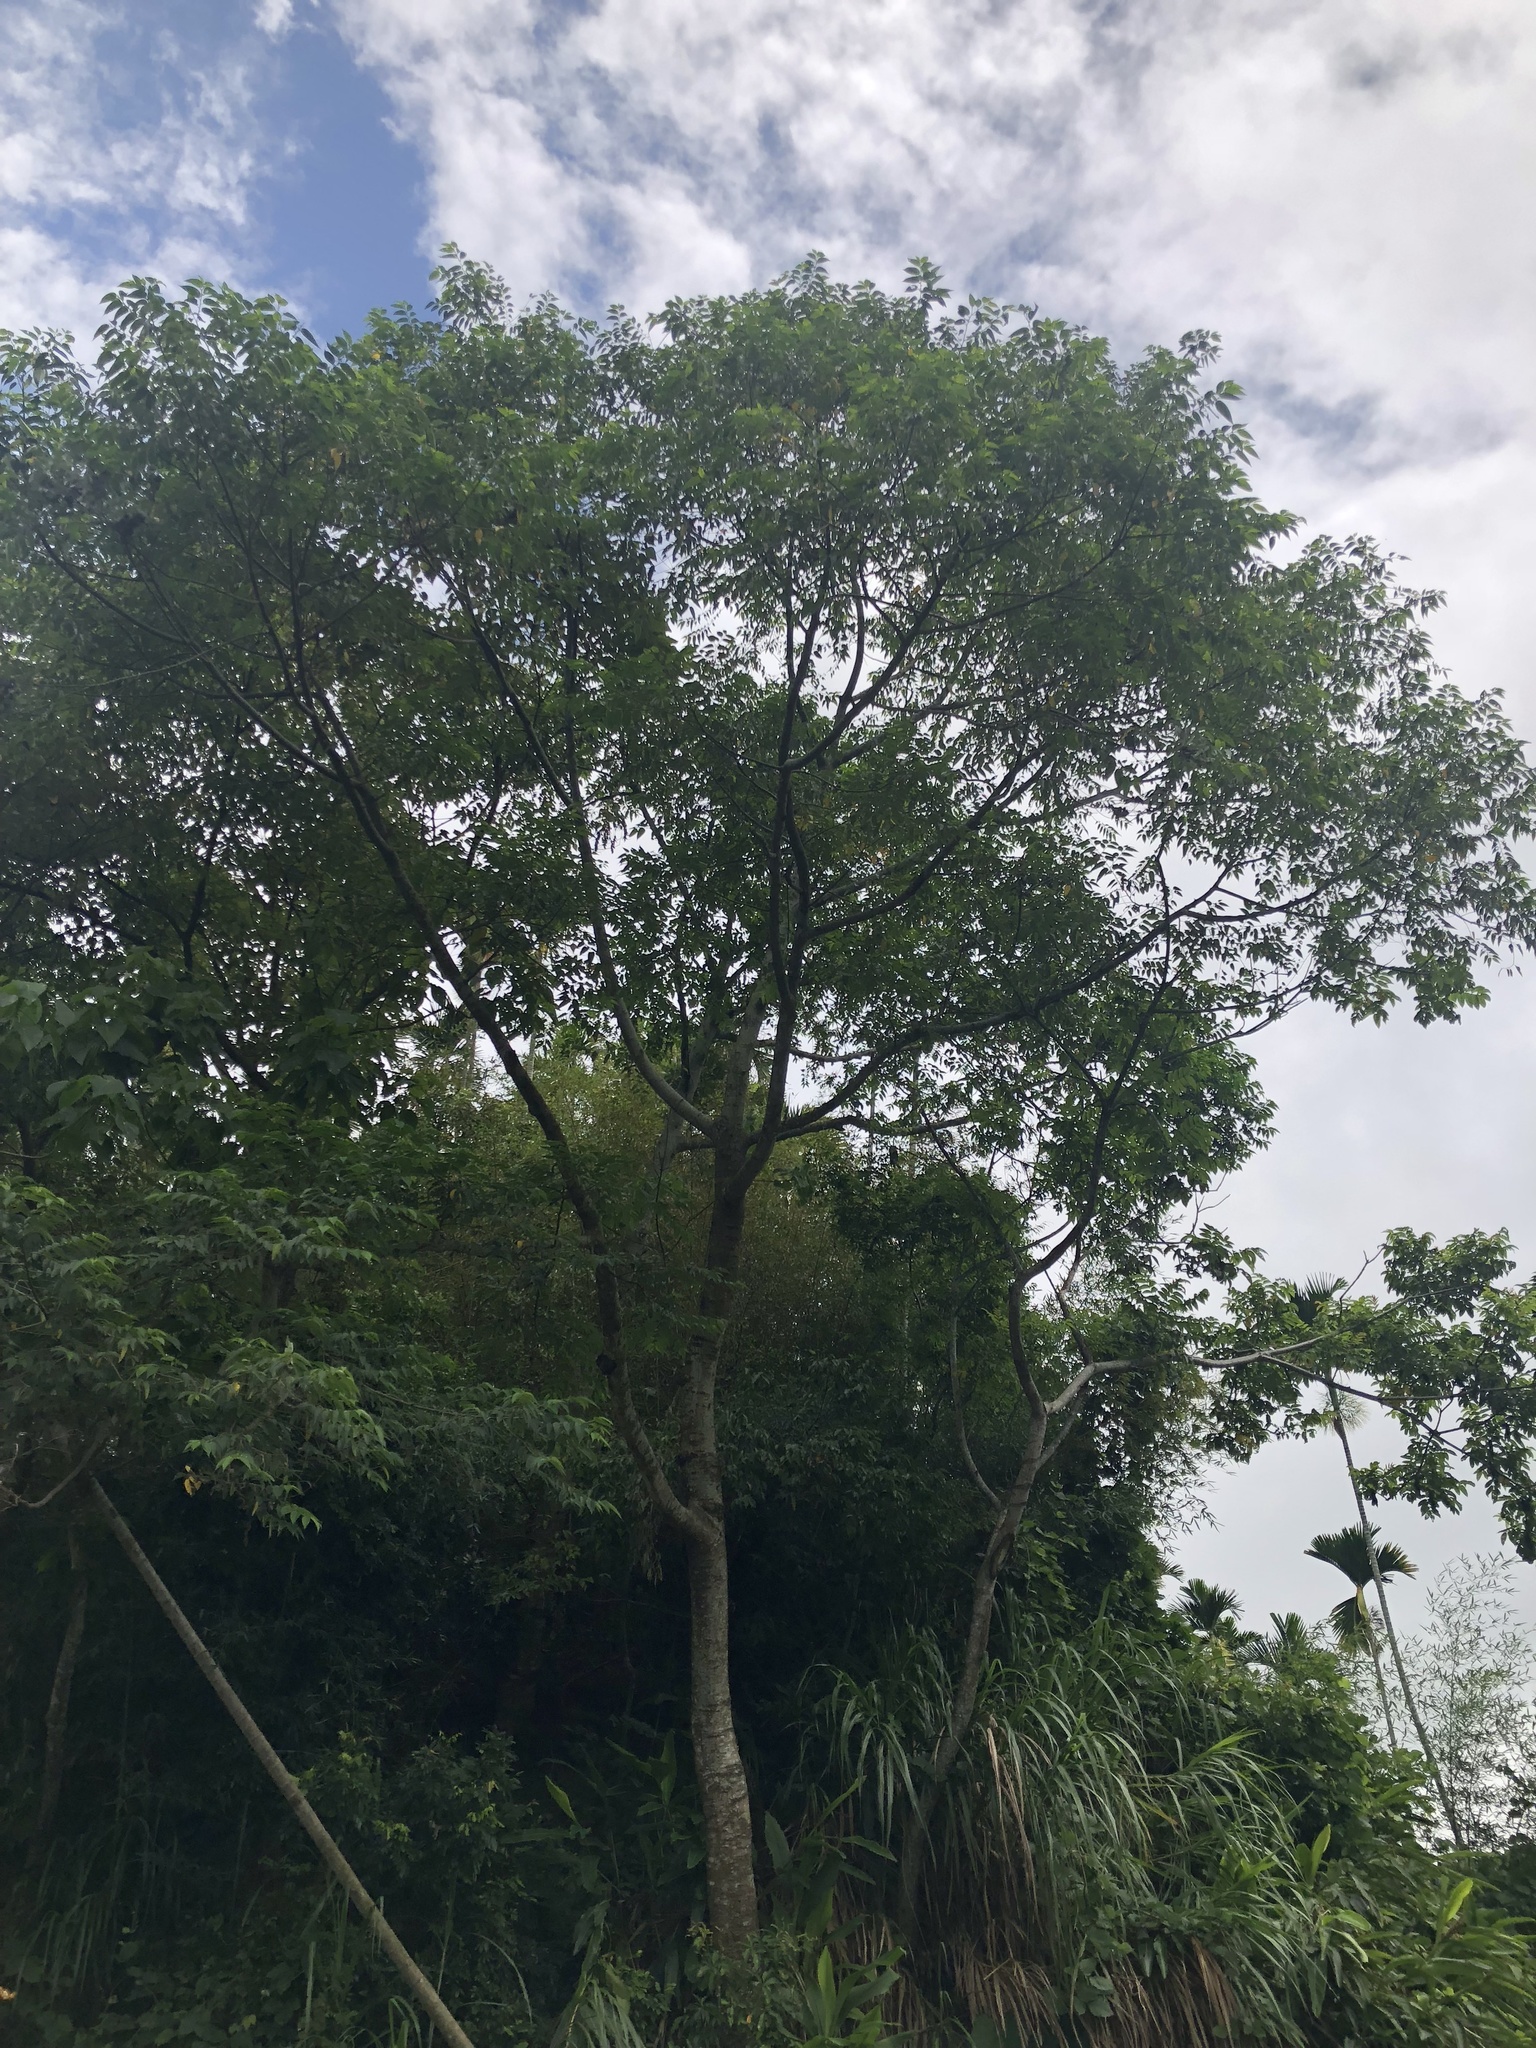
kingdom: Plantae
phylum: Tracheophyta
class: Magnoliopsida
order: Rosales
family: Cannabaceae
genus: Trema
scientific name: Trema orientale
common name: Indian charcoal tree
